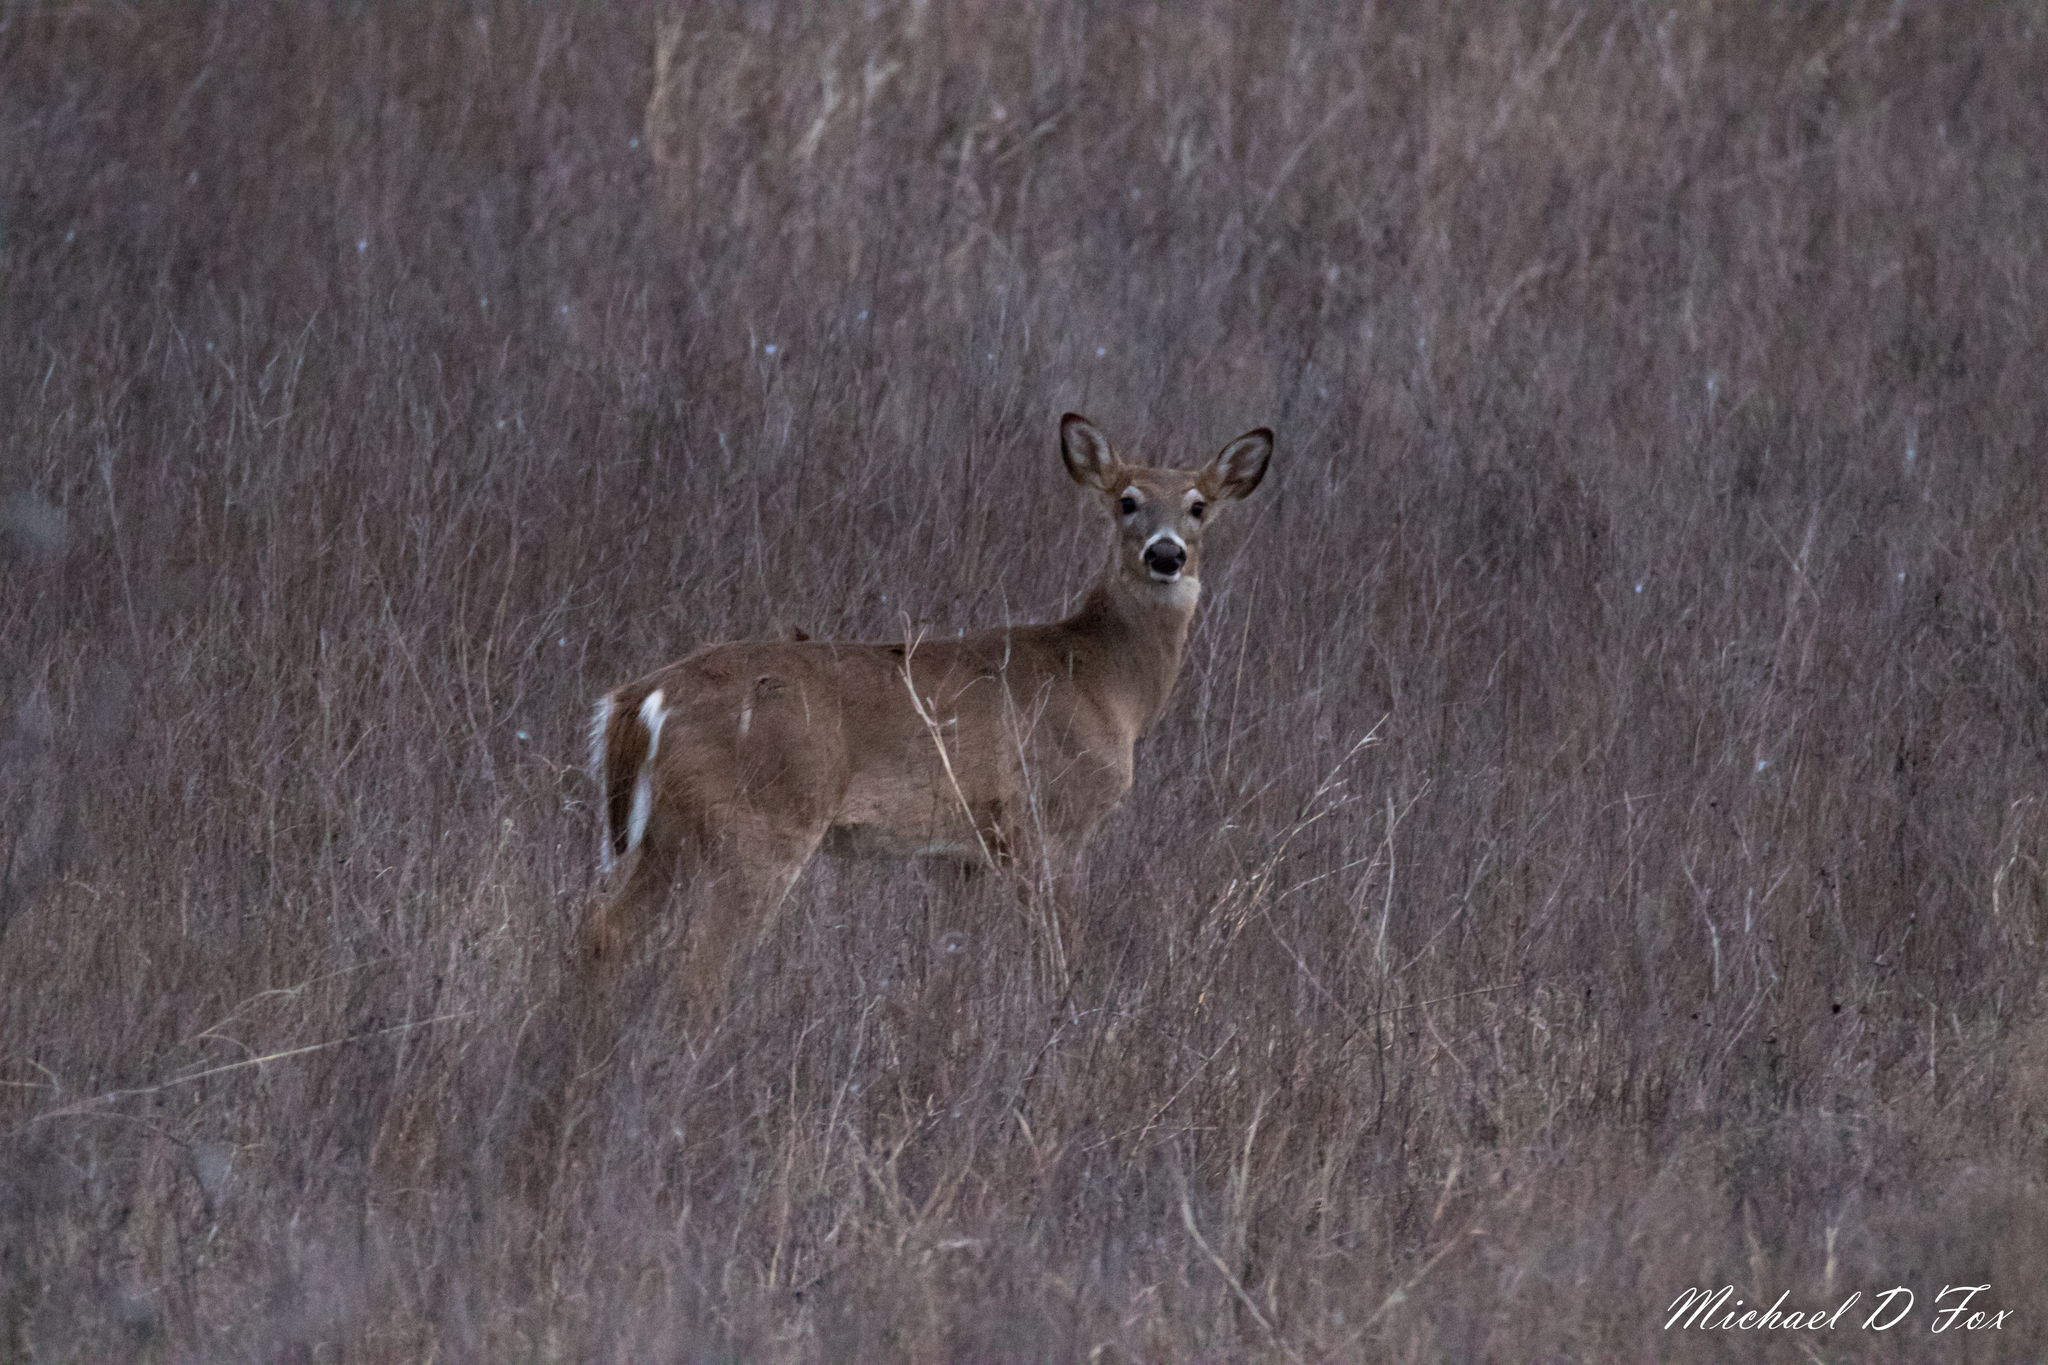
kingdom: Animalia
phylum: Chordata
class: Mammalia
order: Artiodactyla
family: Cervidae
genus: Odocoileus
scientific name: Odocoileus virginianus
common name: White-tailed deer
